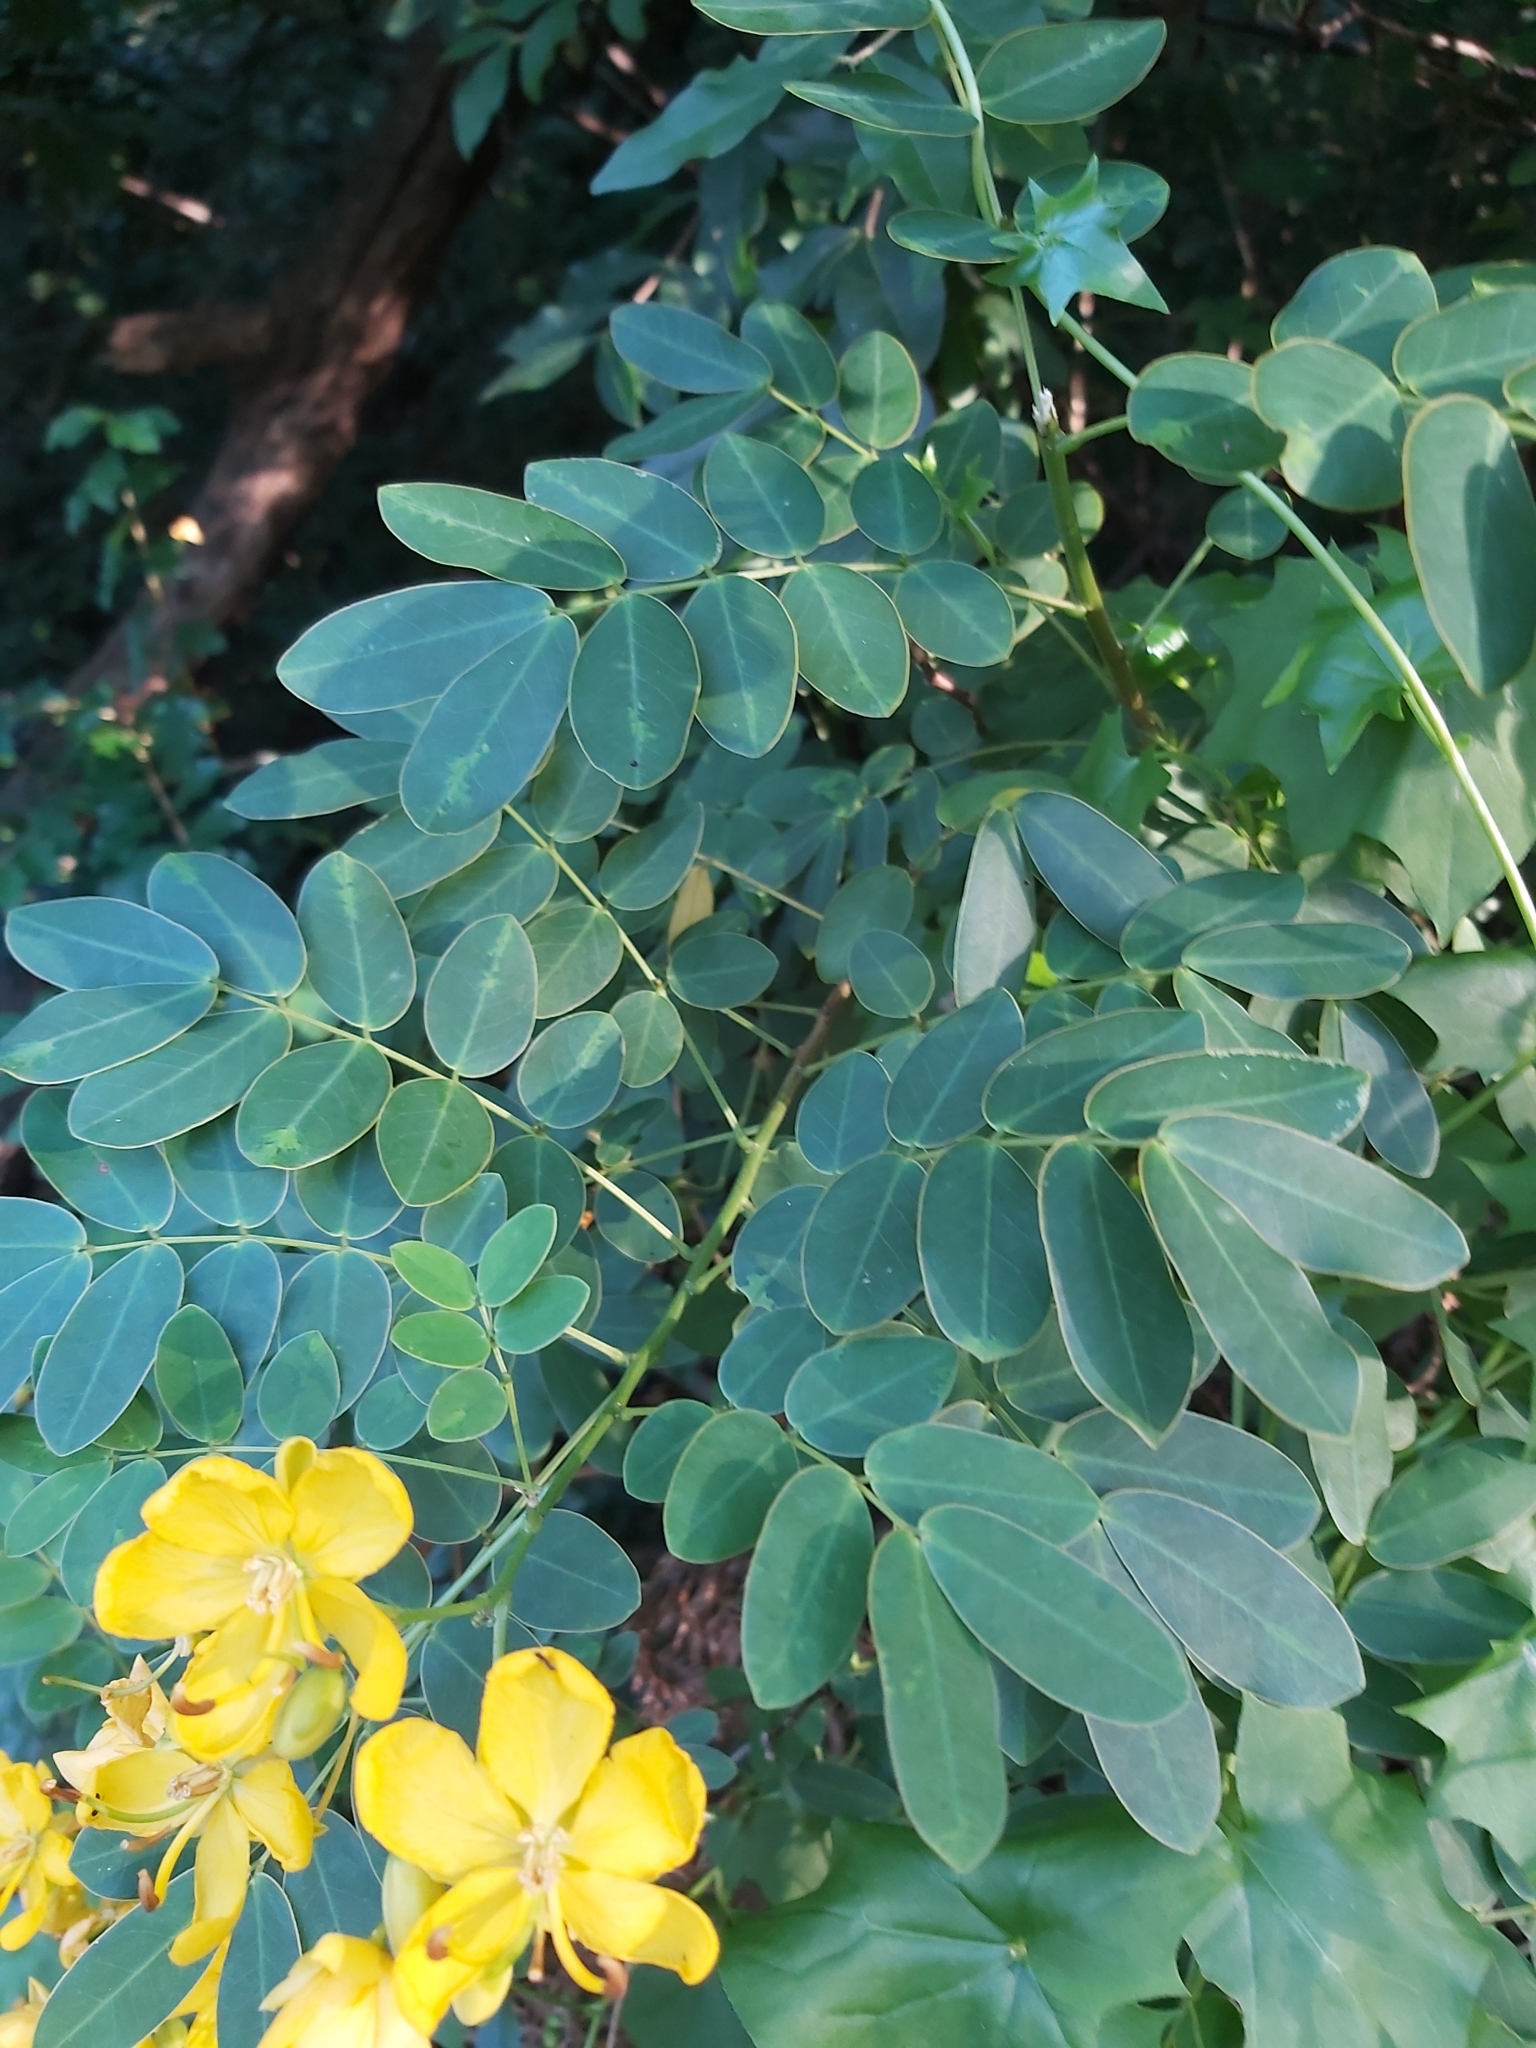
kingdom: Plantae
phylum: Tracheophyta
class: Magnoliopsida
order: Fabales
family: Fabaceae
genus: Senna
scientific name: Senna pendula
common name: Easter cassia
